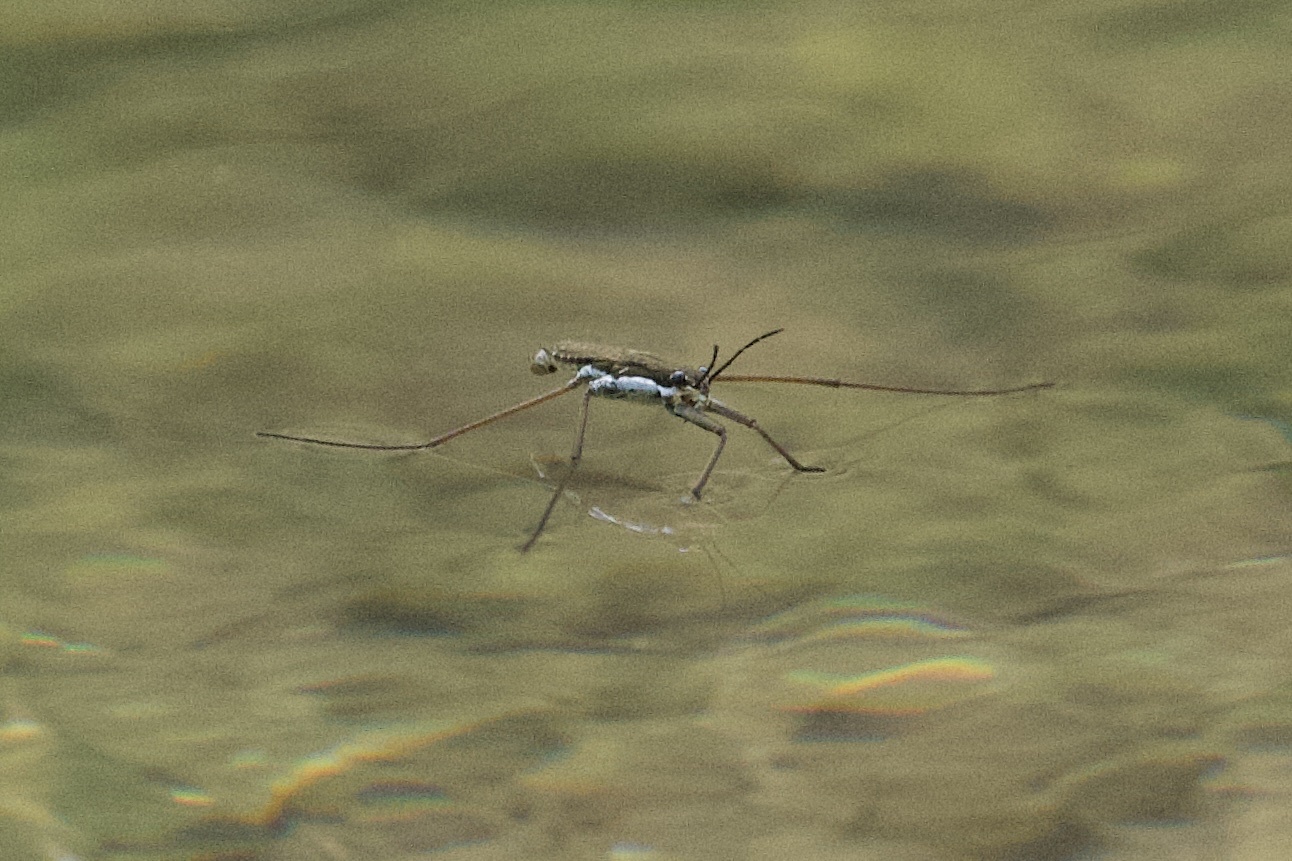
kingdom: Animalia
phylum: Arthropoda
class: Insecta
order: Hemiptera
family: Gerridae
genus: Aquarius
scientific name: Aquarius remigis
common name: Common water strider
